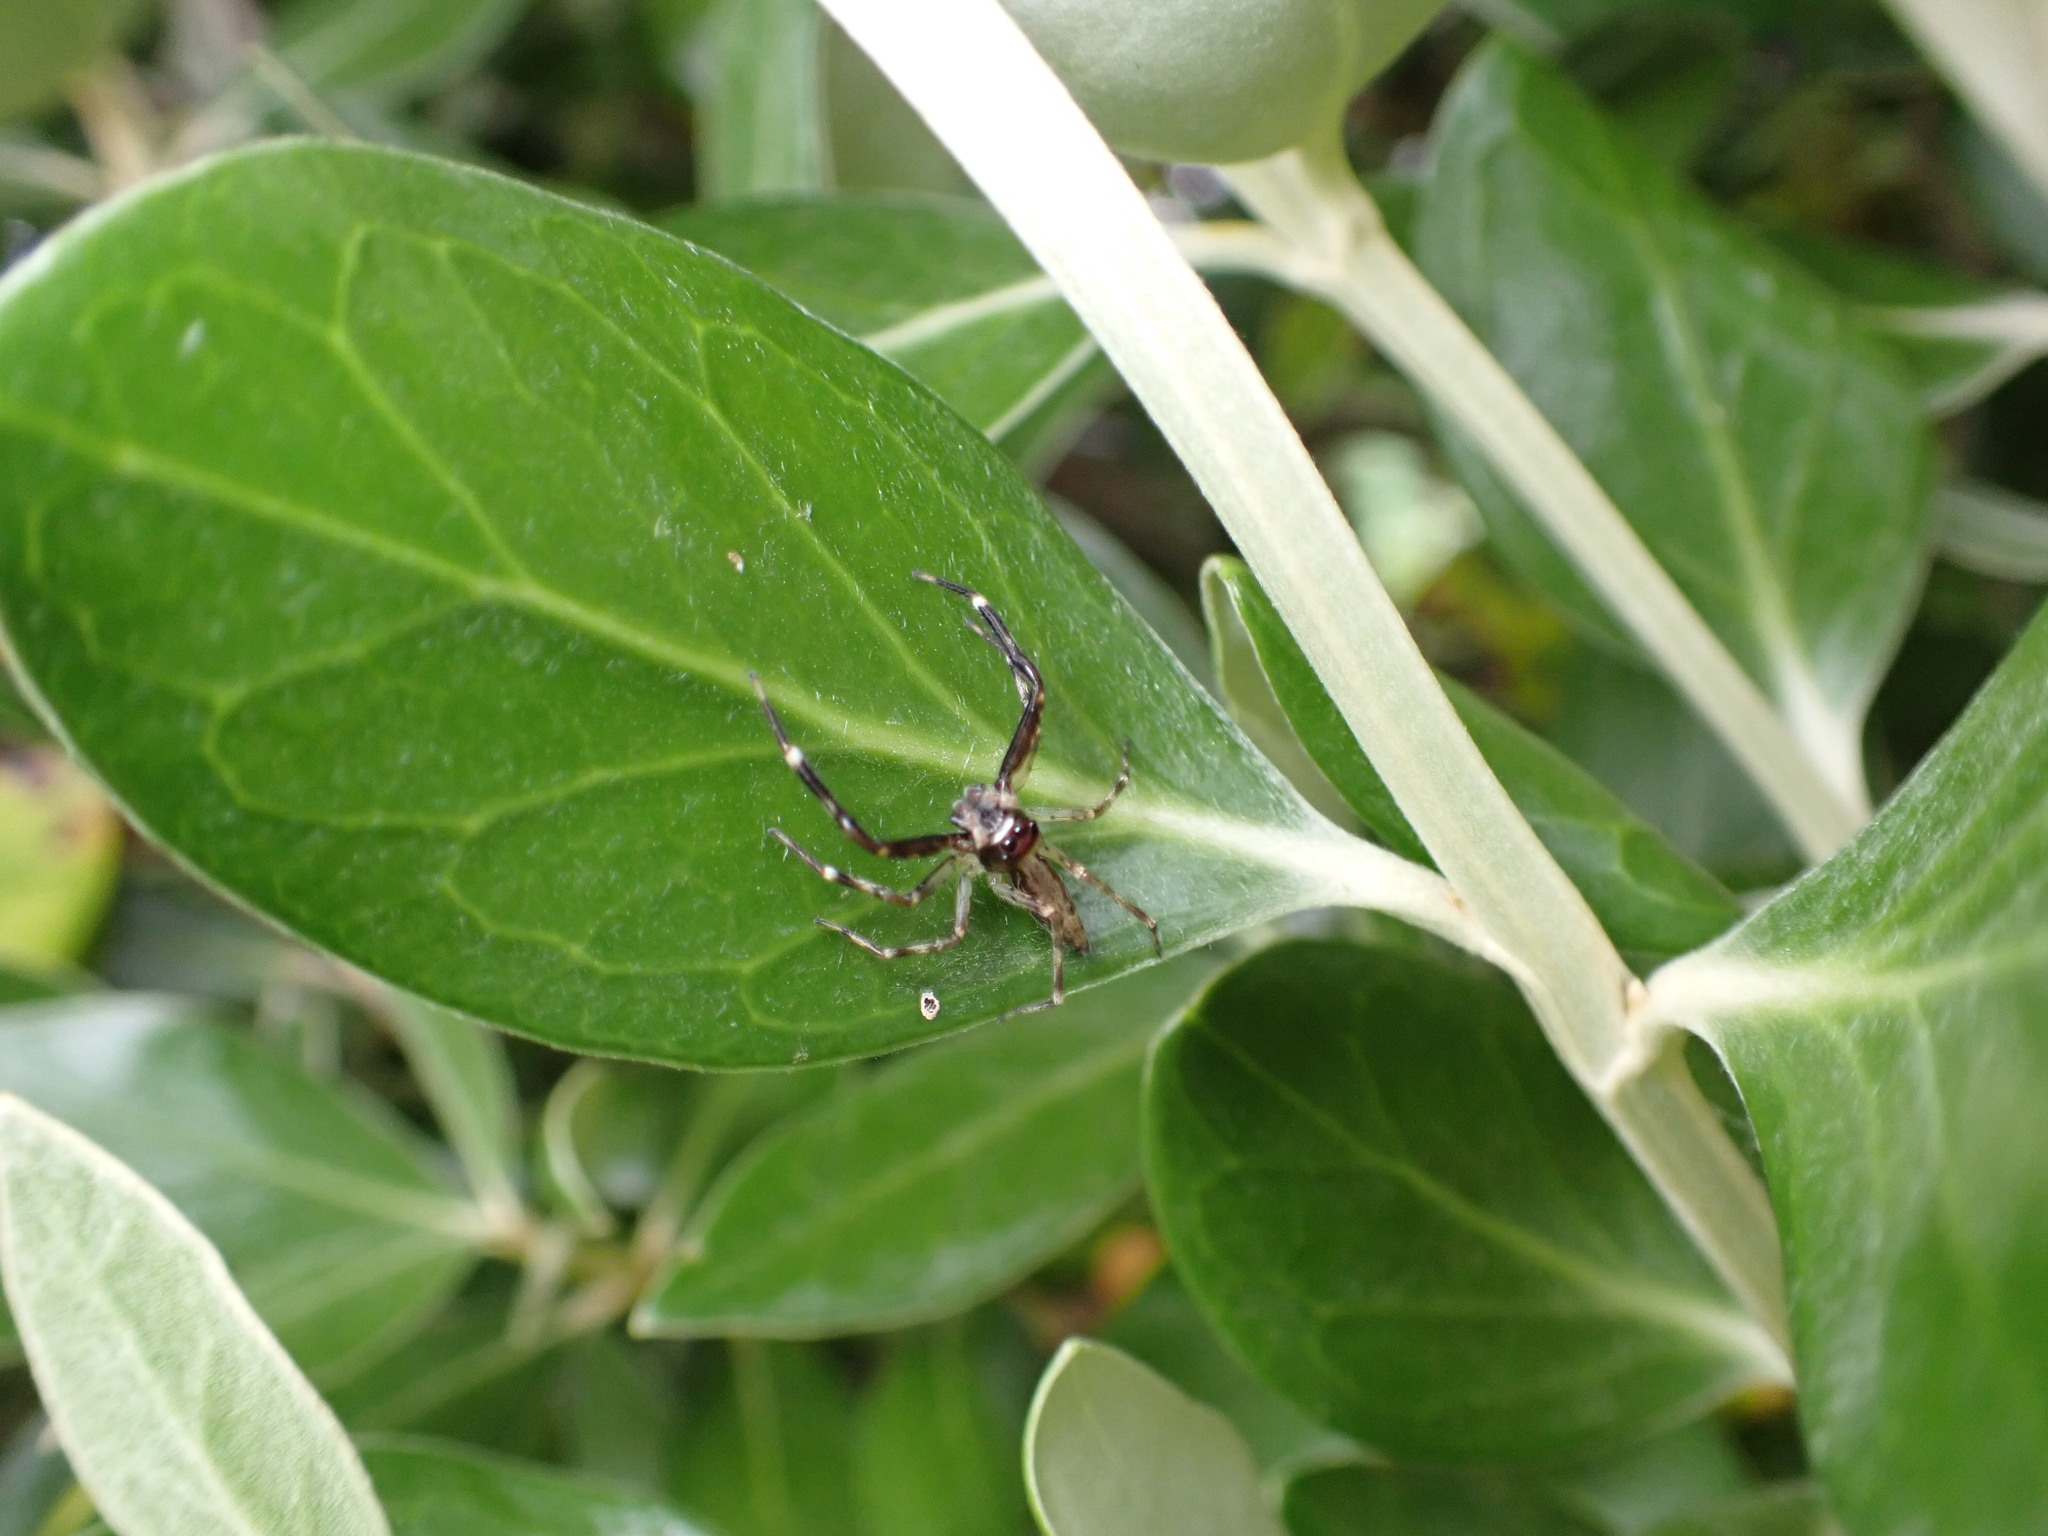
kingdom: Animalia
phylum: Arthropoda
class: Arachnida
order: Araneae
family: Salticidae
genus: Helpis
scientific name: Helpis minitabunda
